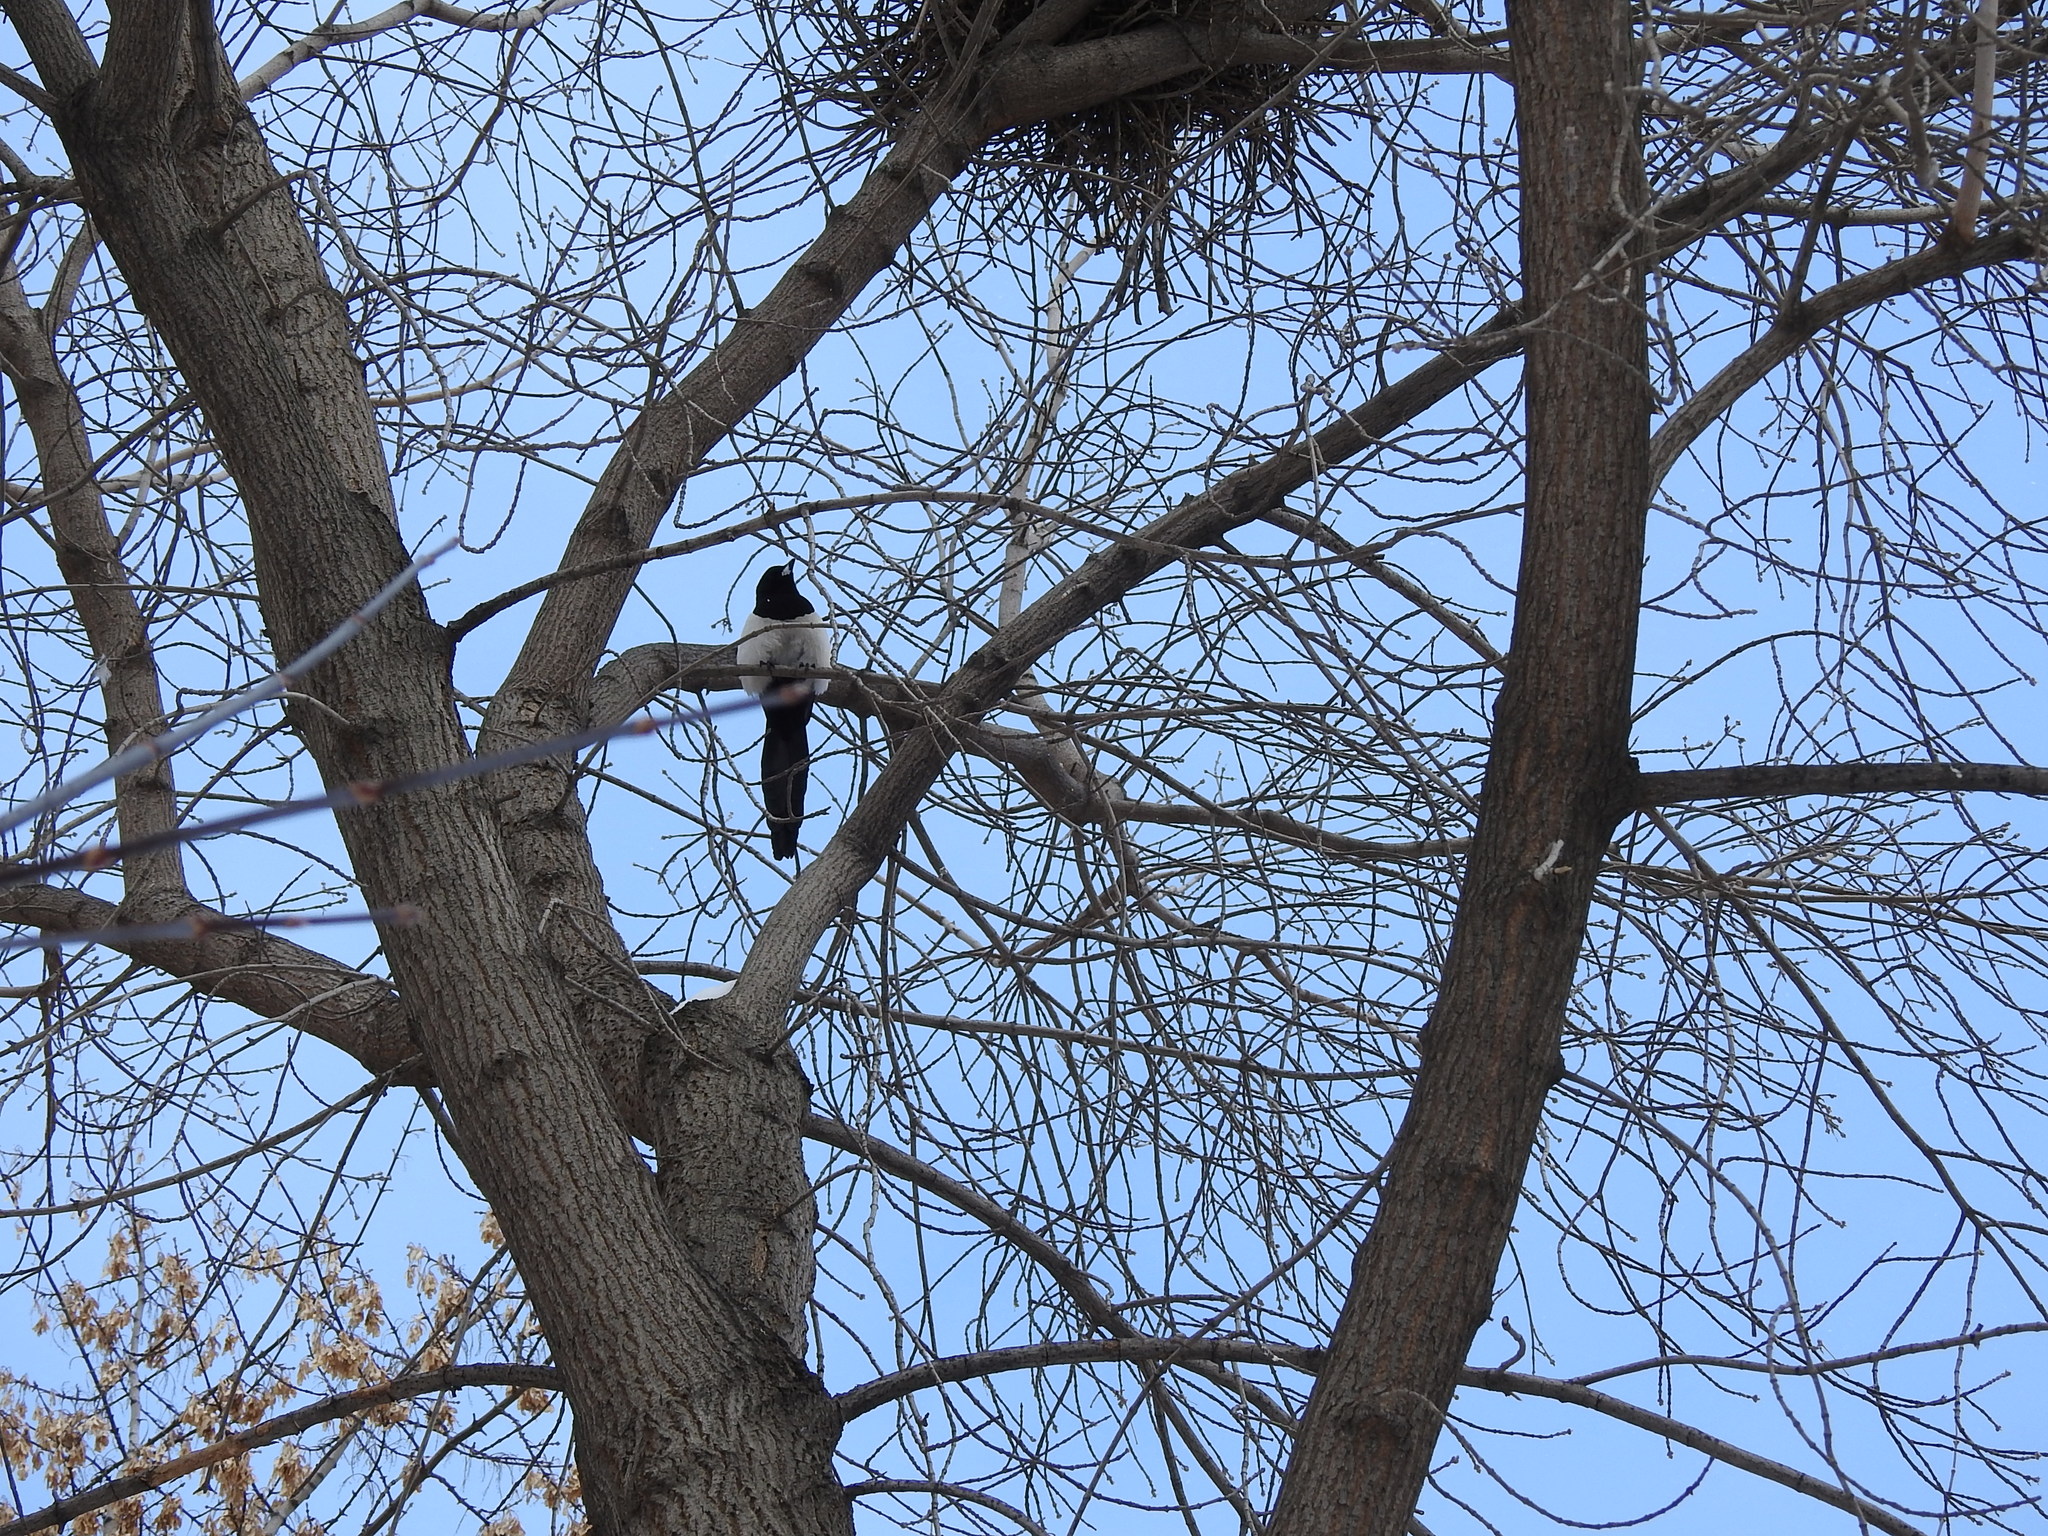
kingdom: Animalia
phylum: Chordata
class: Aves
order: Passeriformes
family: Corvidae
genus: Pica
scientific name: Pica pica
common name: Eurasian magpie
